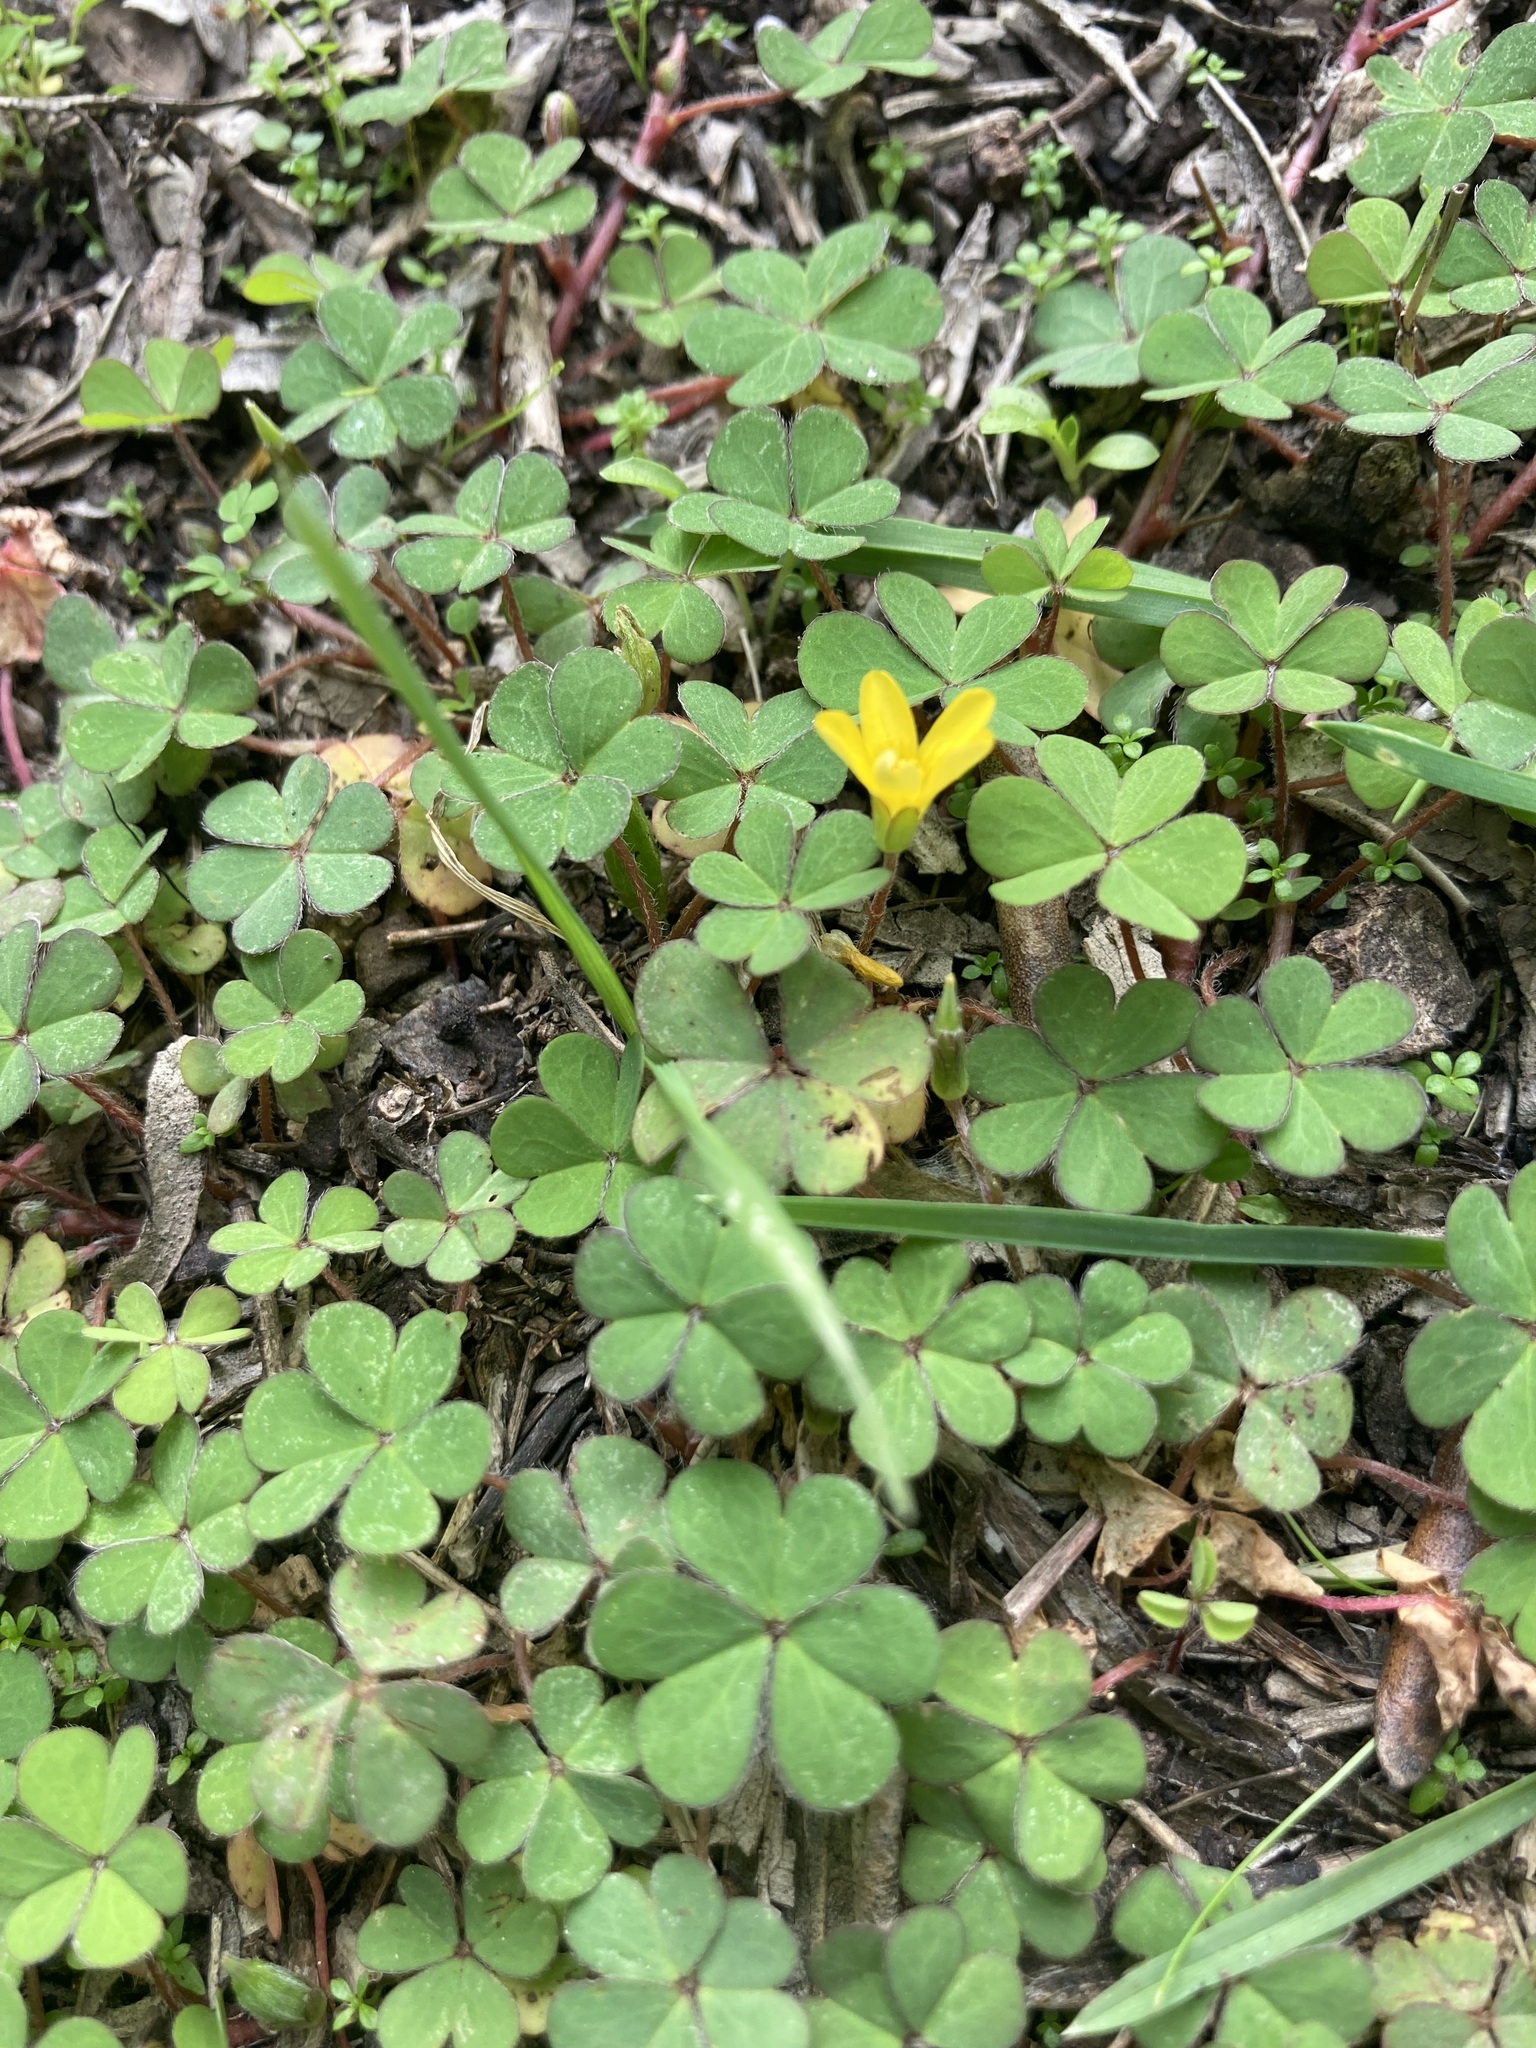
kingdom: Plantae
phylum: Tracheophyta
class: Magnoliopsida
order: Oxalidales
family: Oxalidaceae
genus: Oxalis
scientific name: Oxalis corniculata
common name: Procumbent yellow-sorrel
